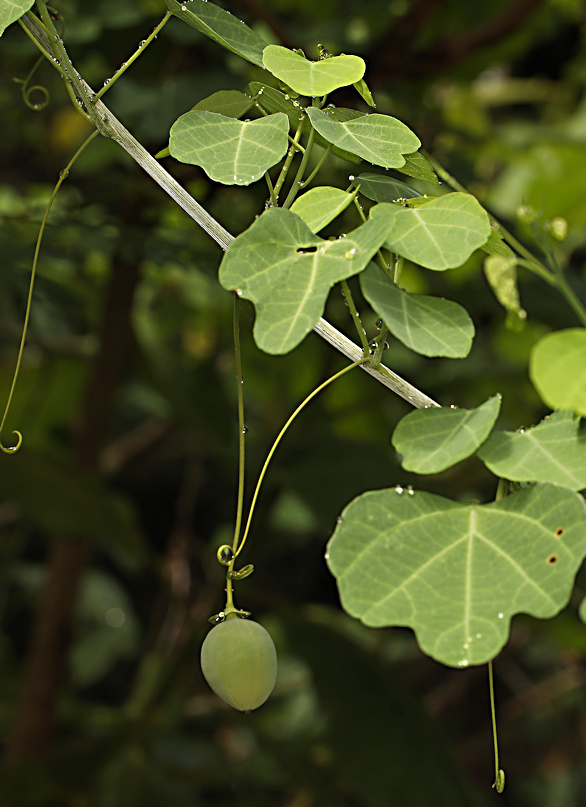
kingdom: Plantae
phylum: Tracheophyta
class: Magnoliopsida
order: Malpighiales
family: Passifloraceae
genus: Adenia
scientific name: Adenia gummifera
